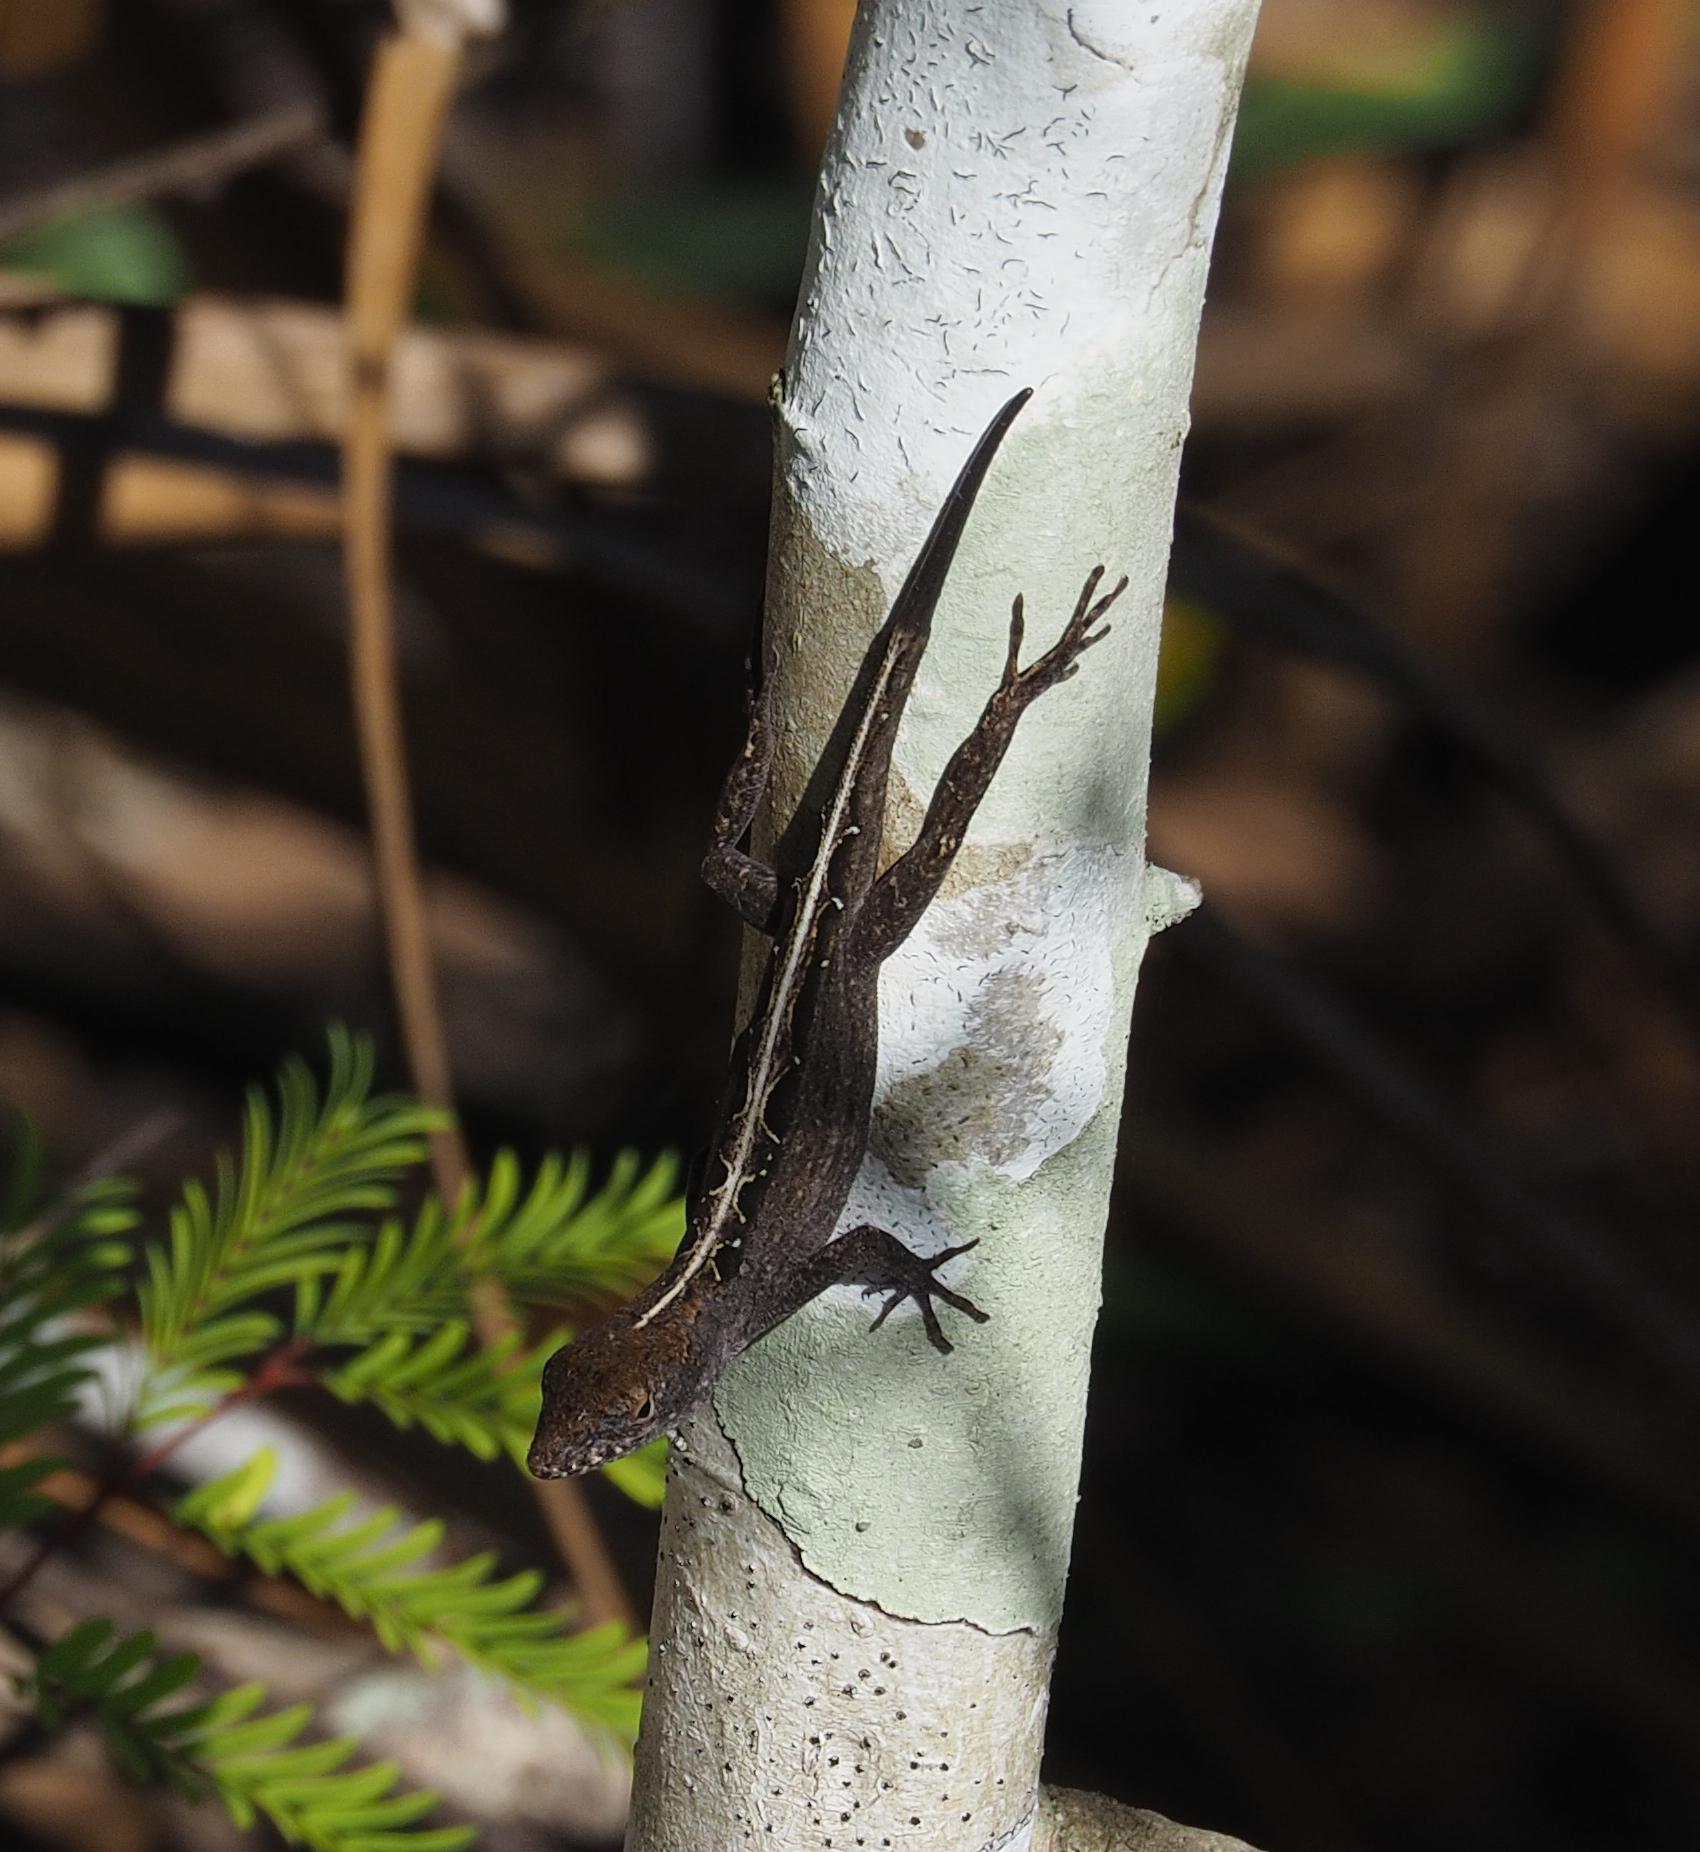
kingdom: Animalia
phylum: Chordata
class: Squamata
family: Dactyloidae
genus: Anolis
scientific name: Anolis sagrei
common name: Brown anole
